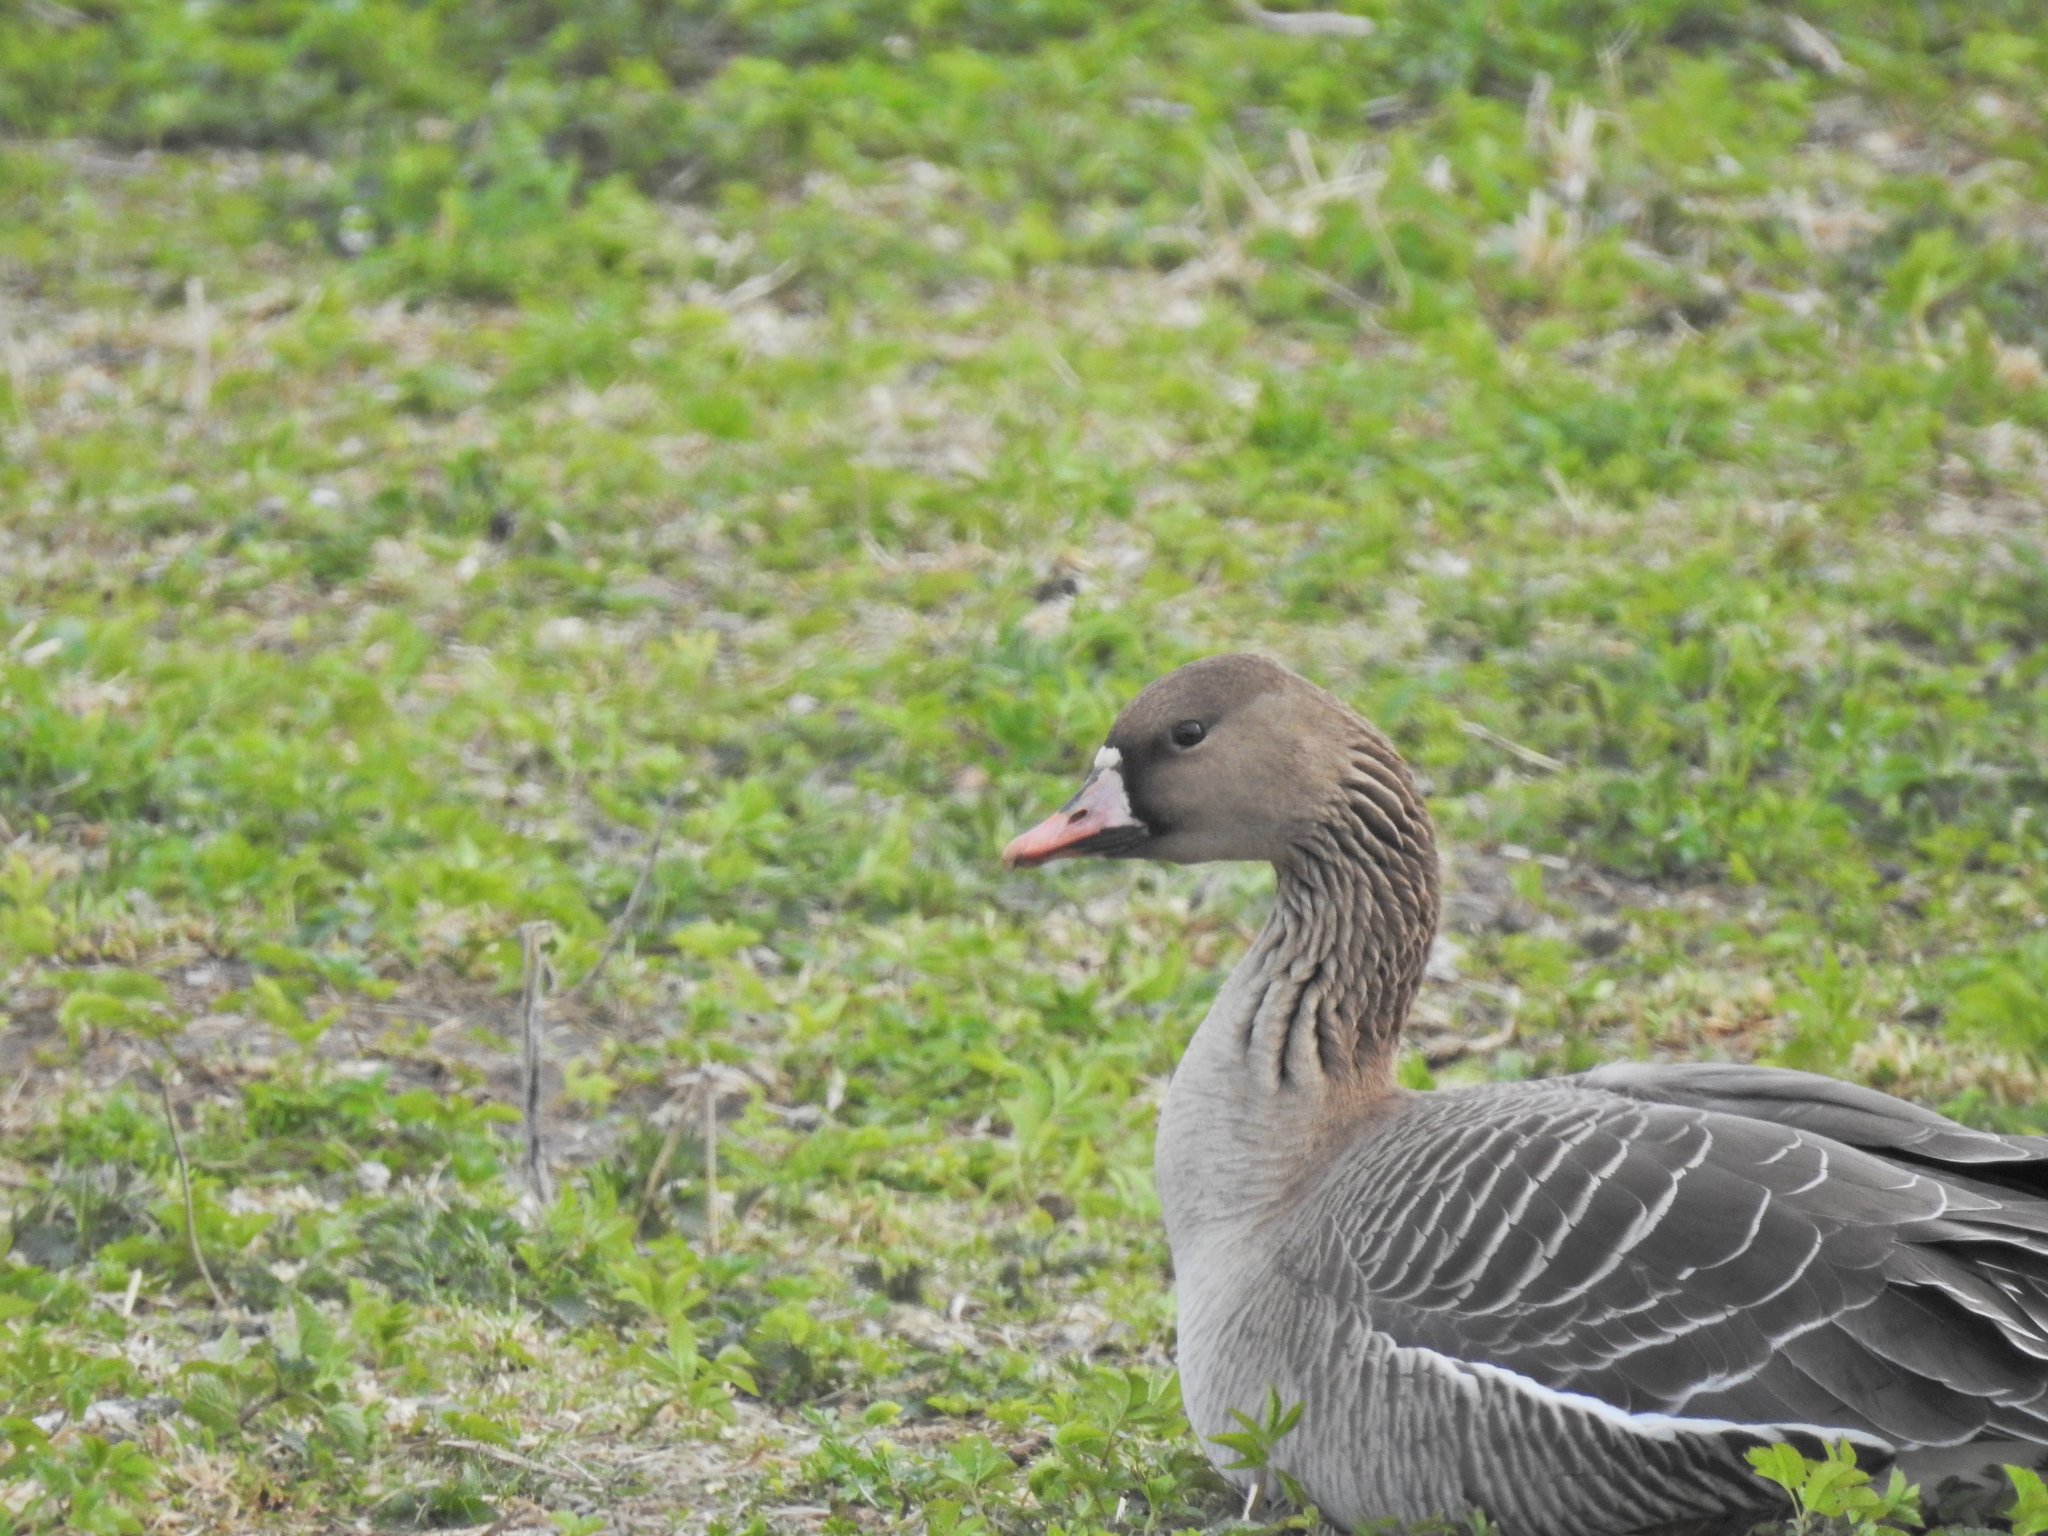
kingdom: Animalia
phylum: Chordata
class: Aves
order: Anseriformes
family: Anatidae
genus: Anser
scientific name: Anser albifrons
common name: Greater white-fronted goose
